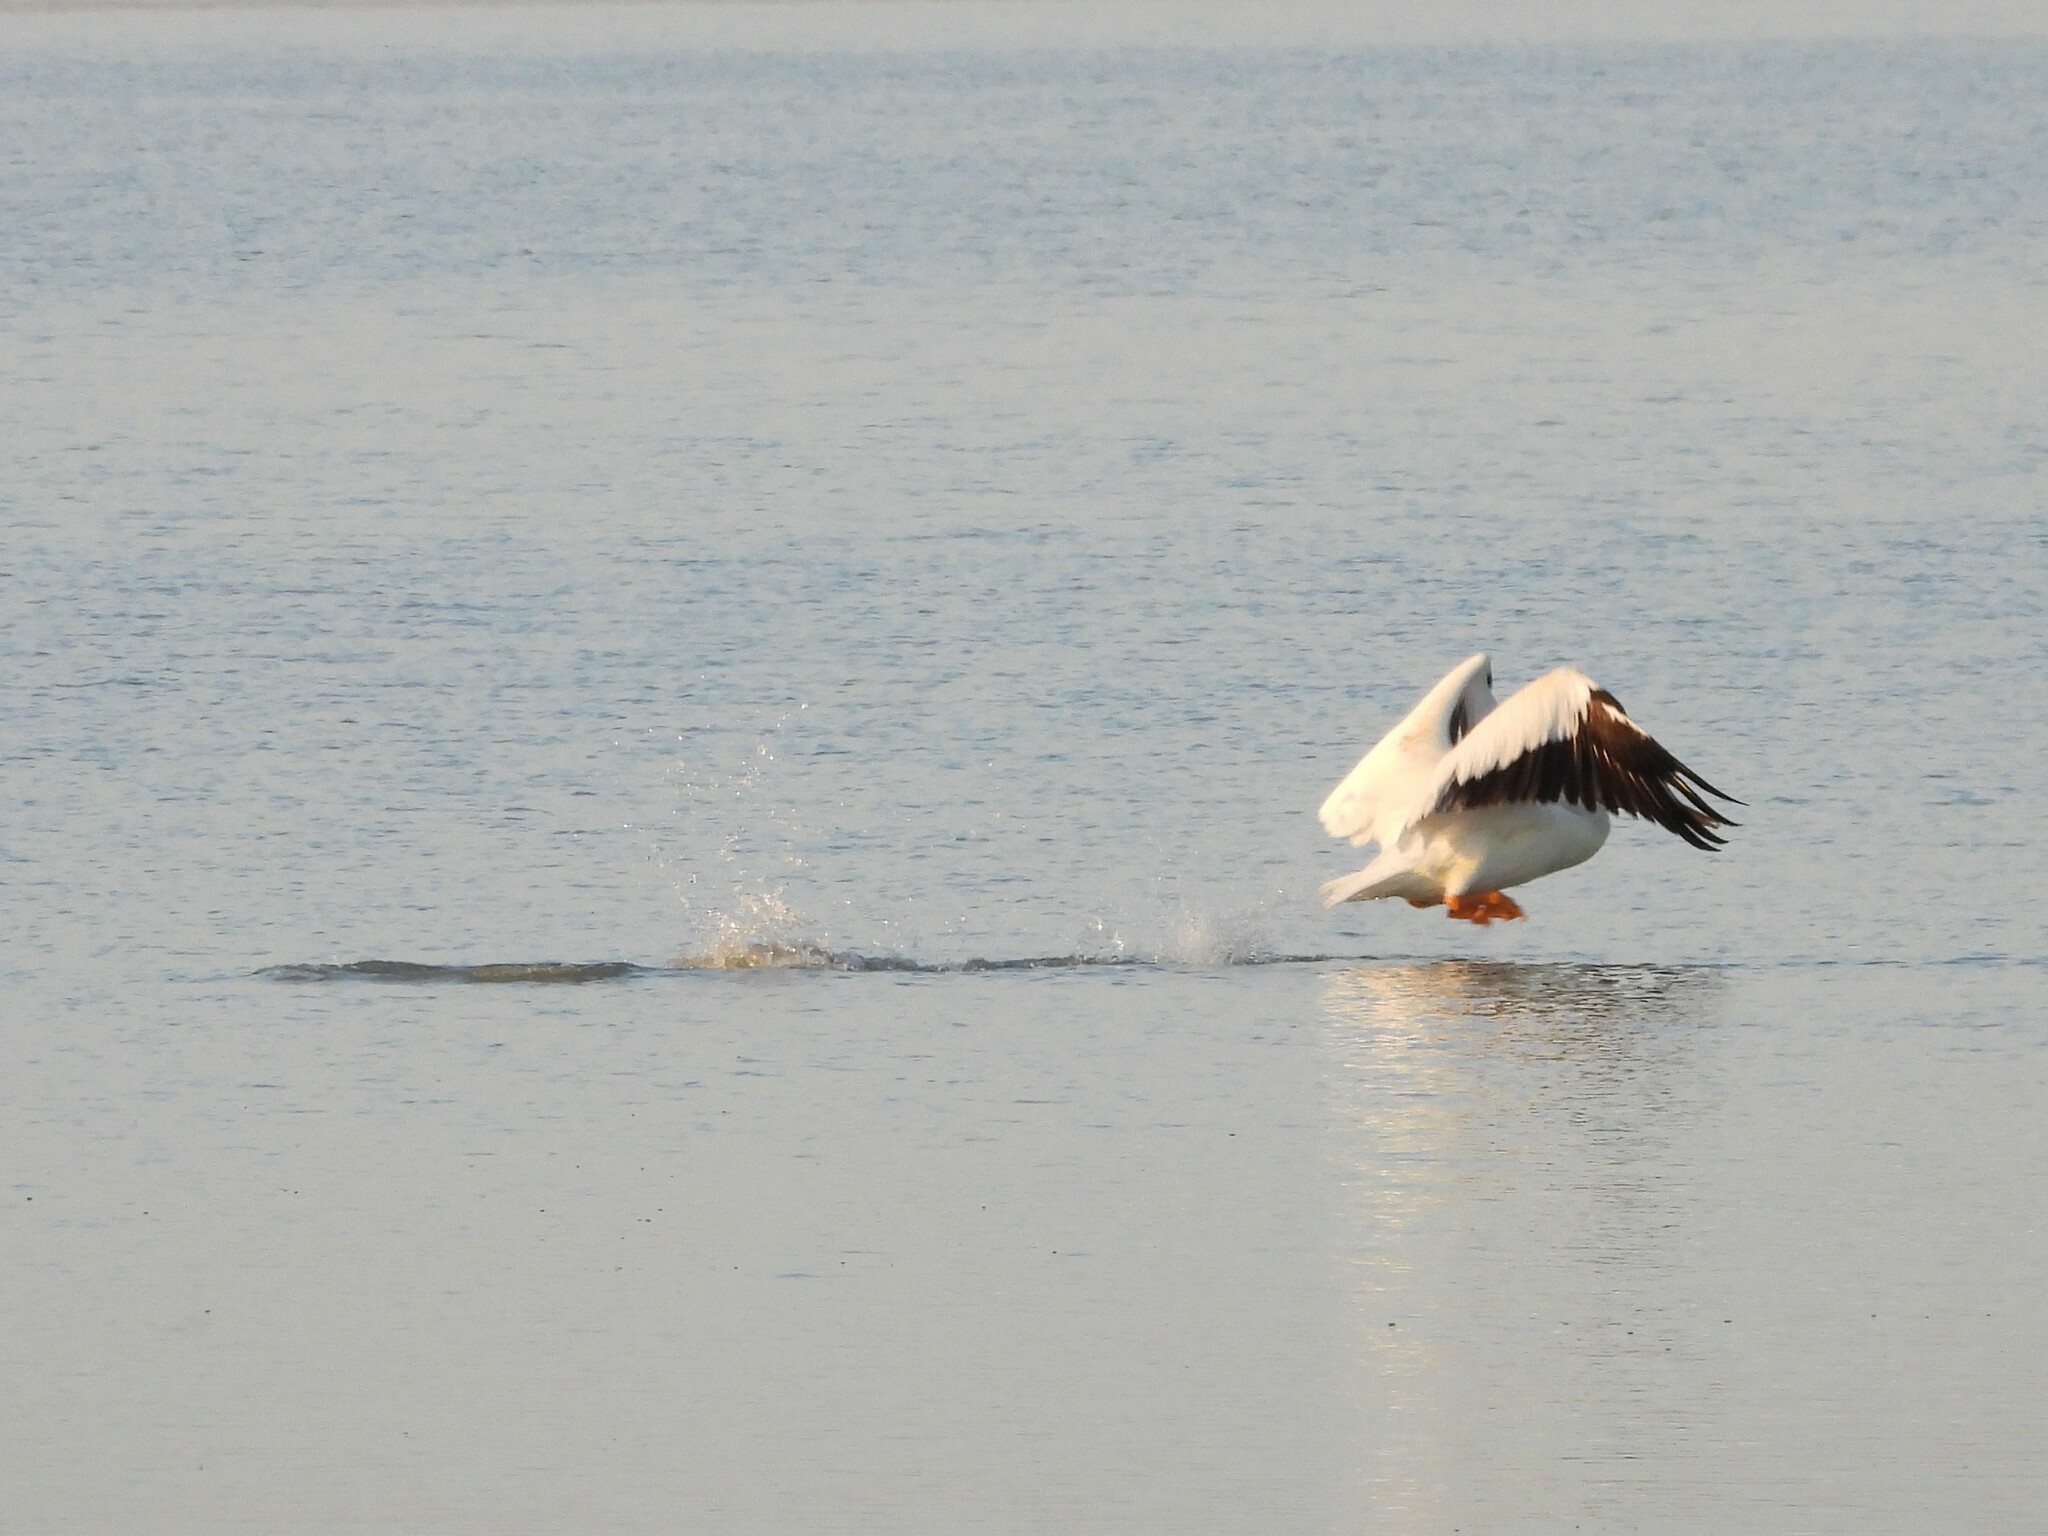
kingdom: Animalia
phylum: Chordata
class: Aves
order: Pelecaniformes
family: Pelecanidae
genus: Pelecanus
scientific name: Pelecanus erythrorhynchos
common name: American white pelican
